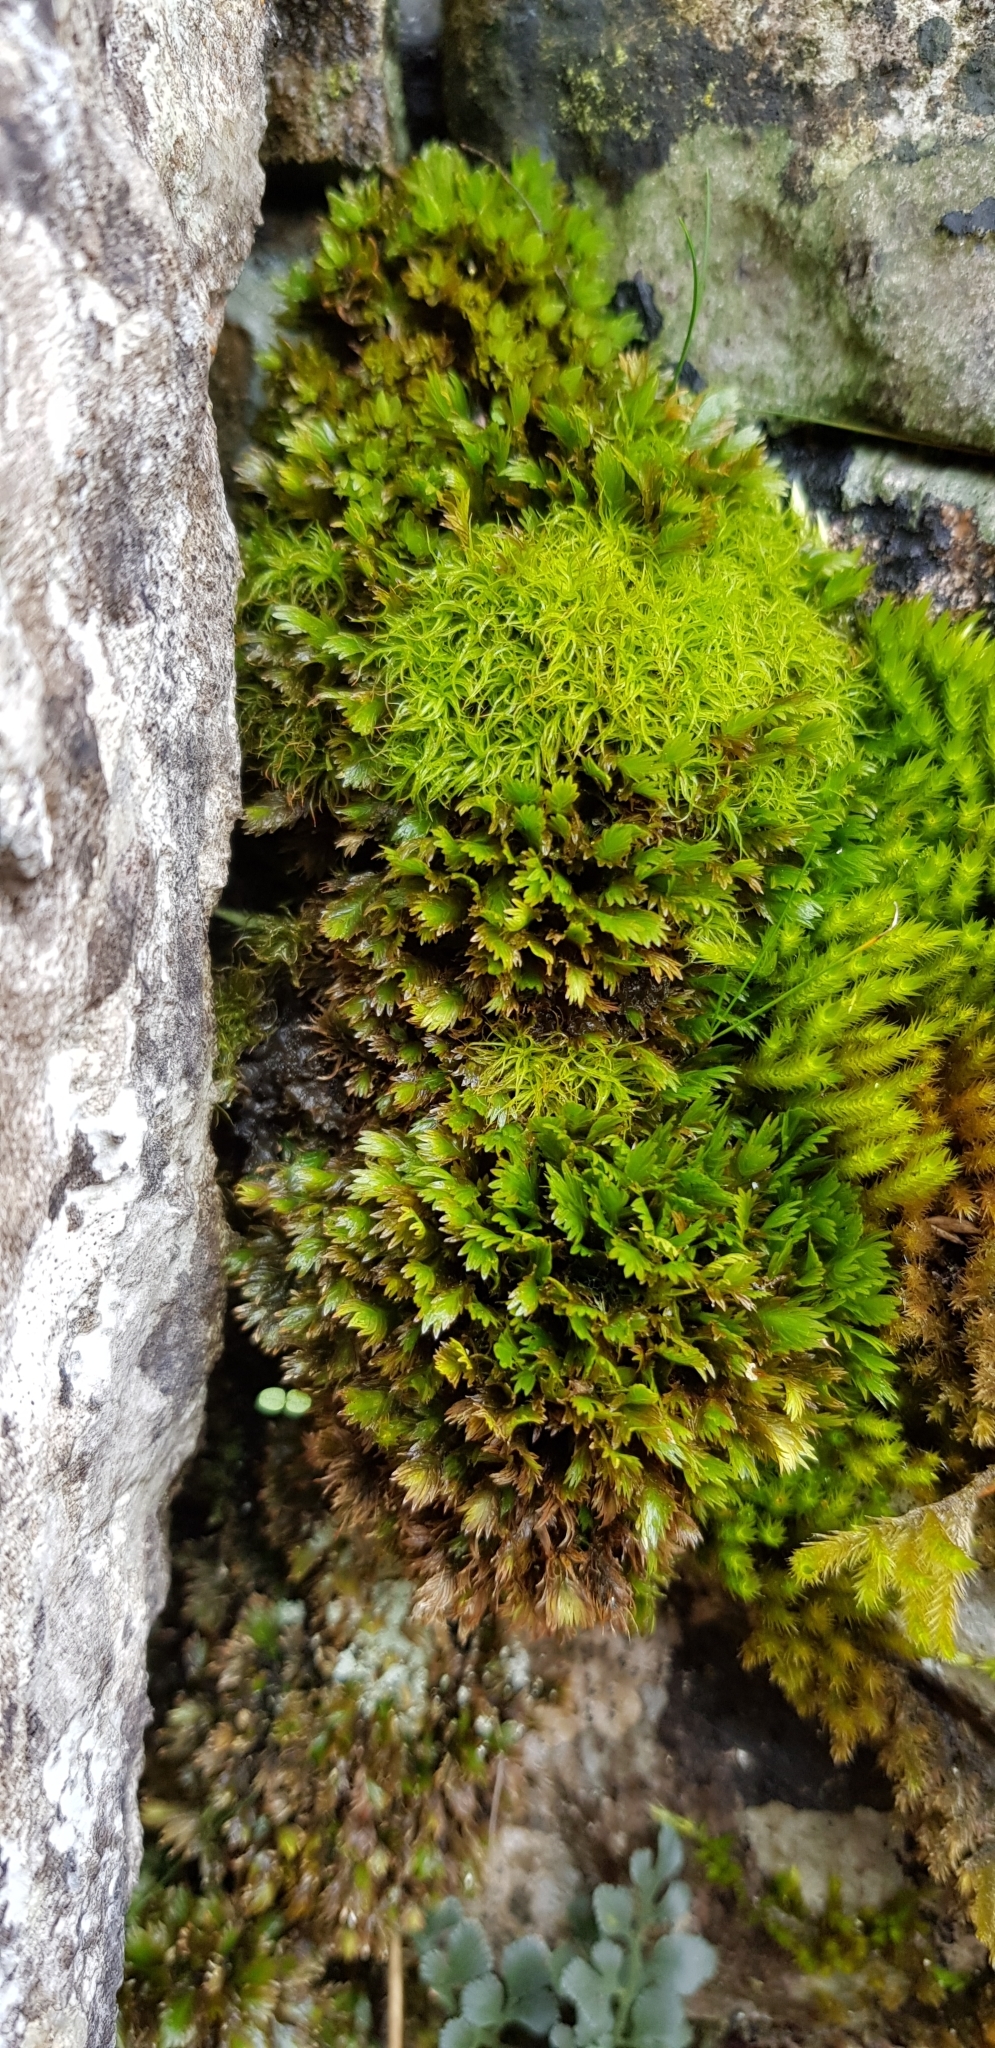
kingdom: Plantae
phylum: Bryophyta
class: Bryopsida
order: Dicranales
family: Fissidentaceae
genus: Fissidens
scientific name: Fissidens dubius
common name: Rock pocket moss
